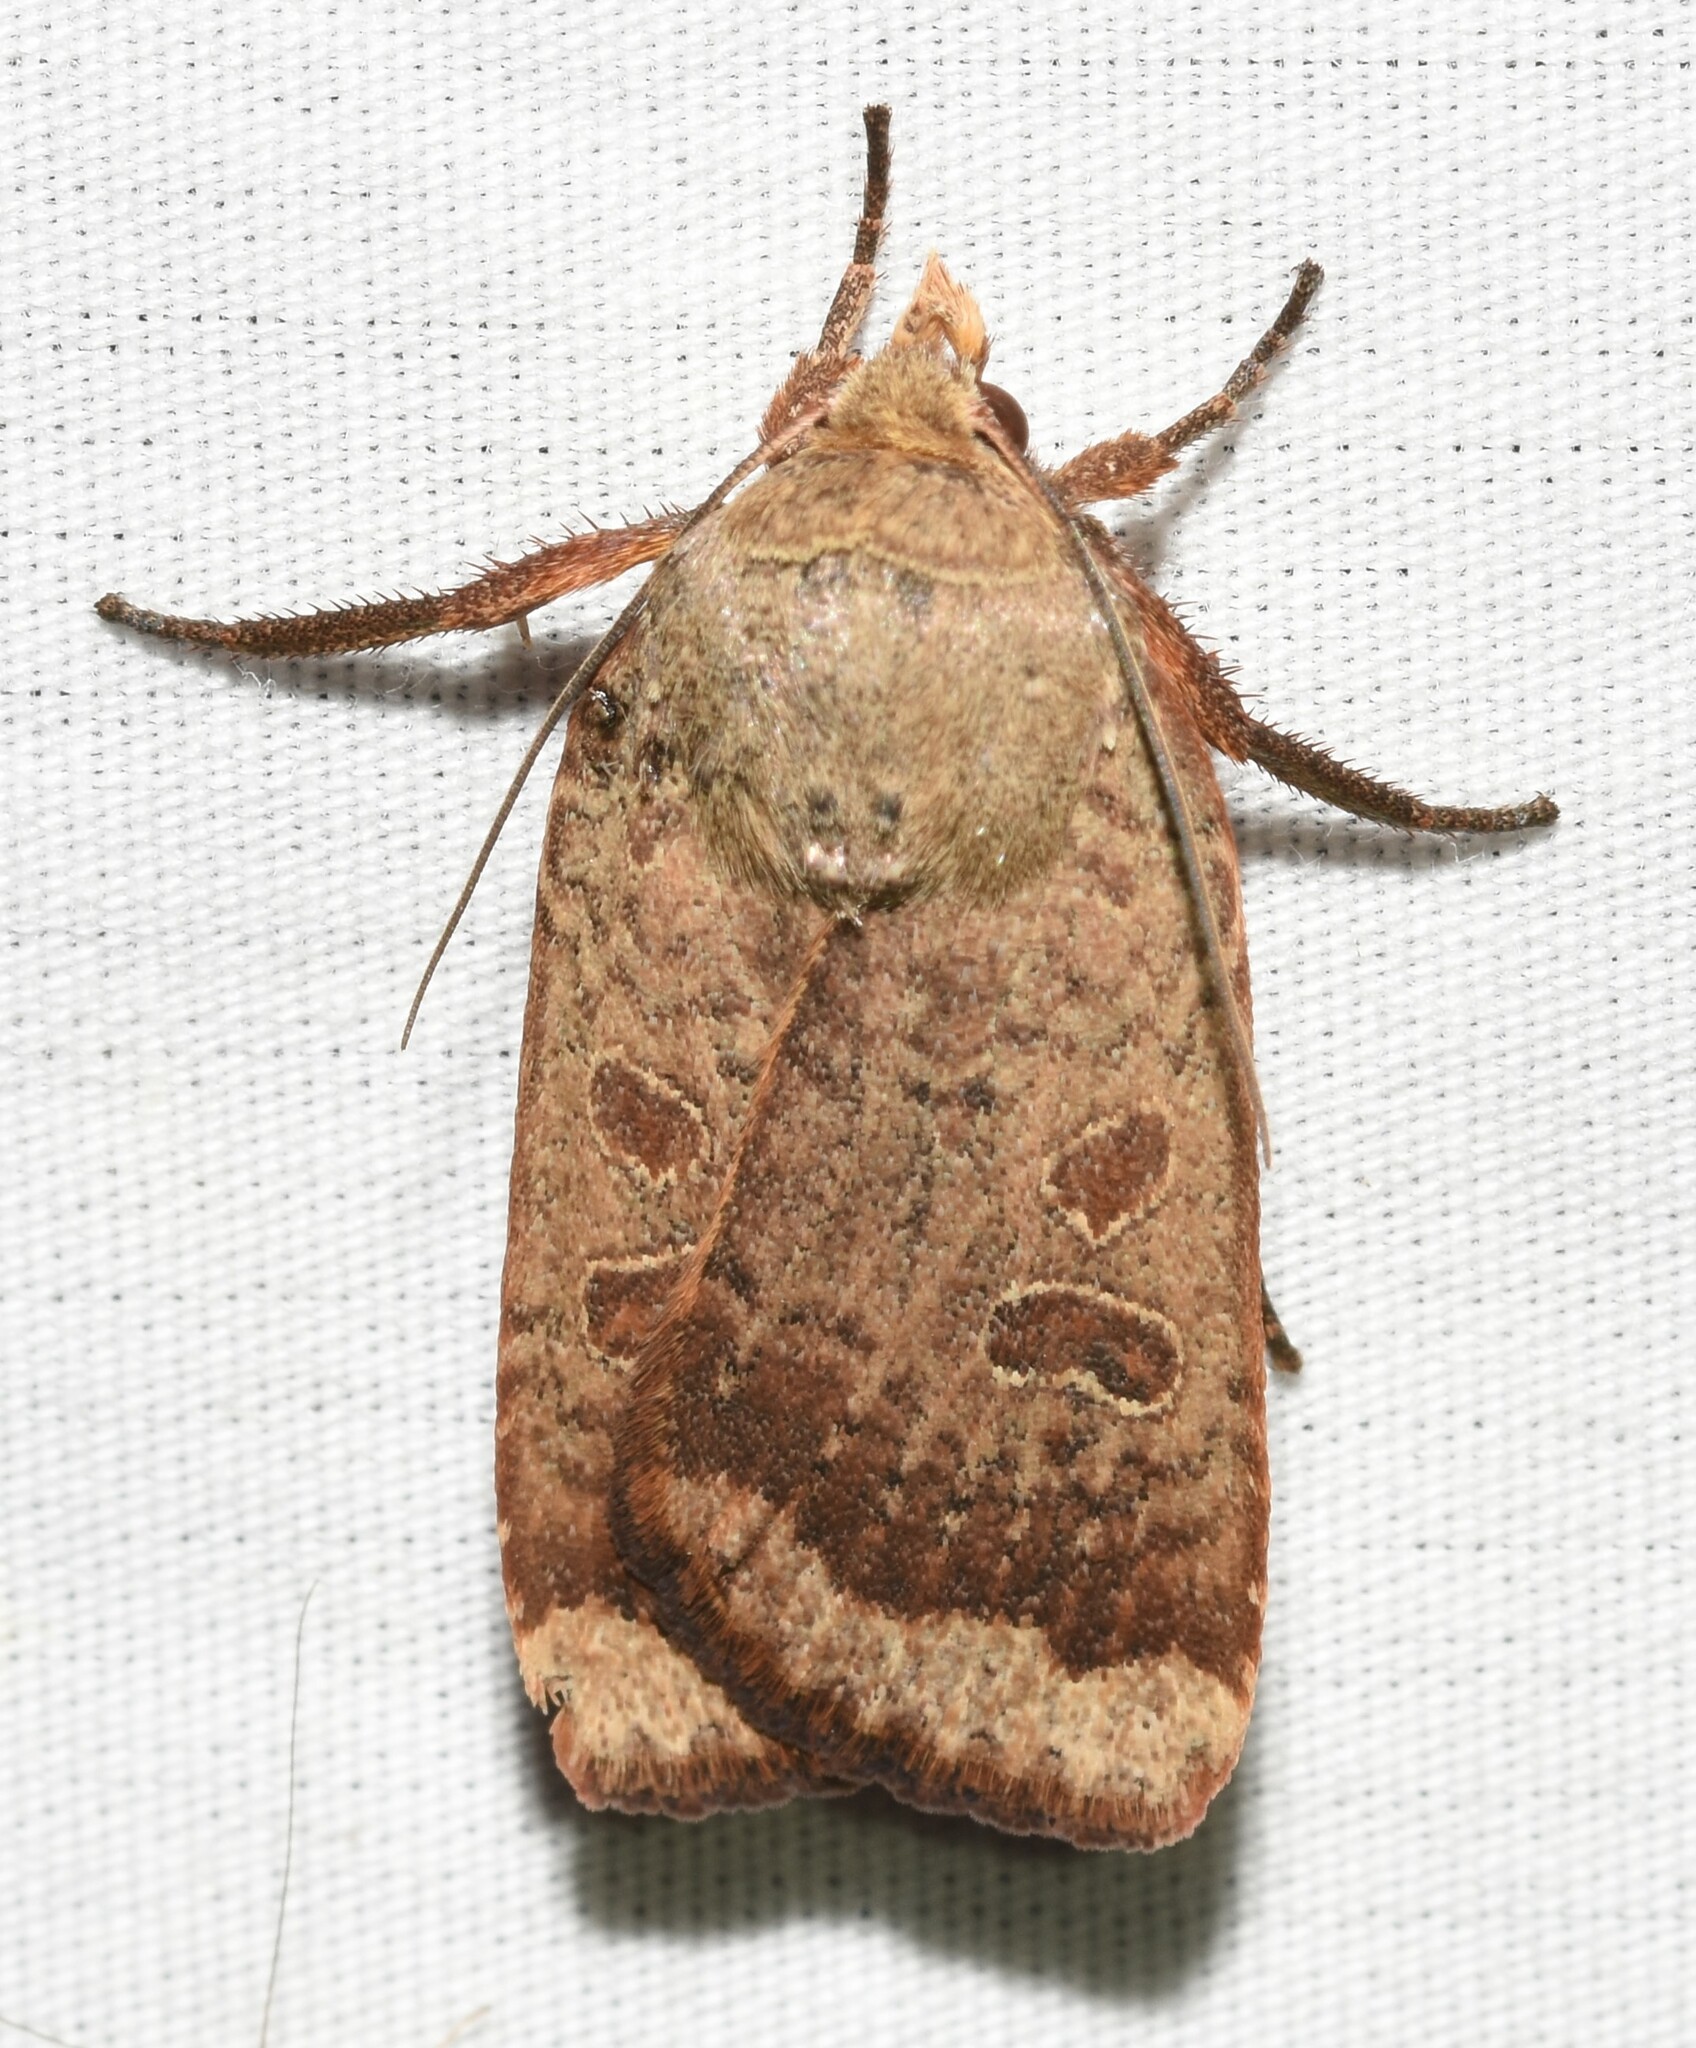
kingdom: Animalia
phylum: Arthropoda
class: Insecta
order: Lepidoptera
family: Noctuidae
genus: Abagrotis
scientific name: Abagrotis alternata
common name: Greater red dart
